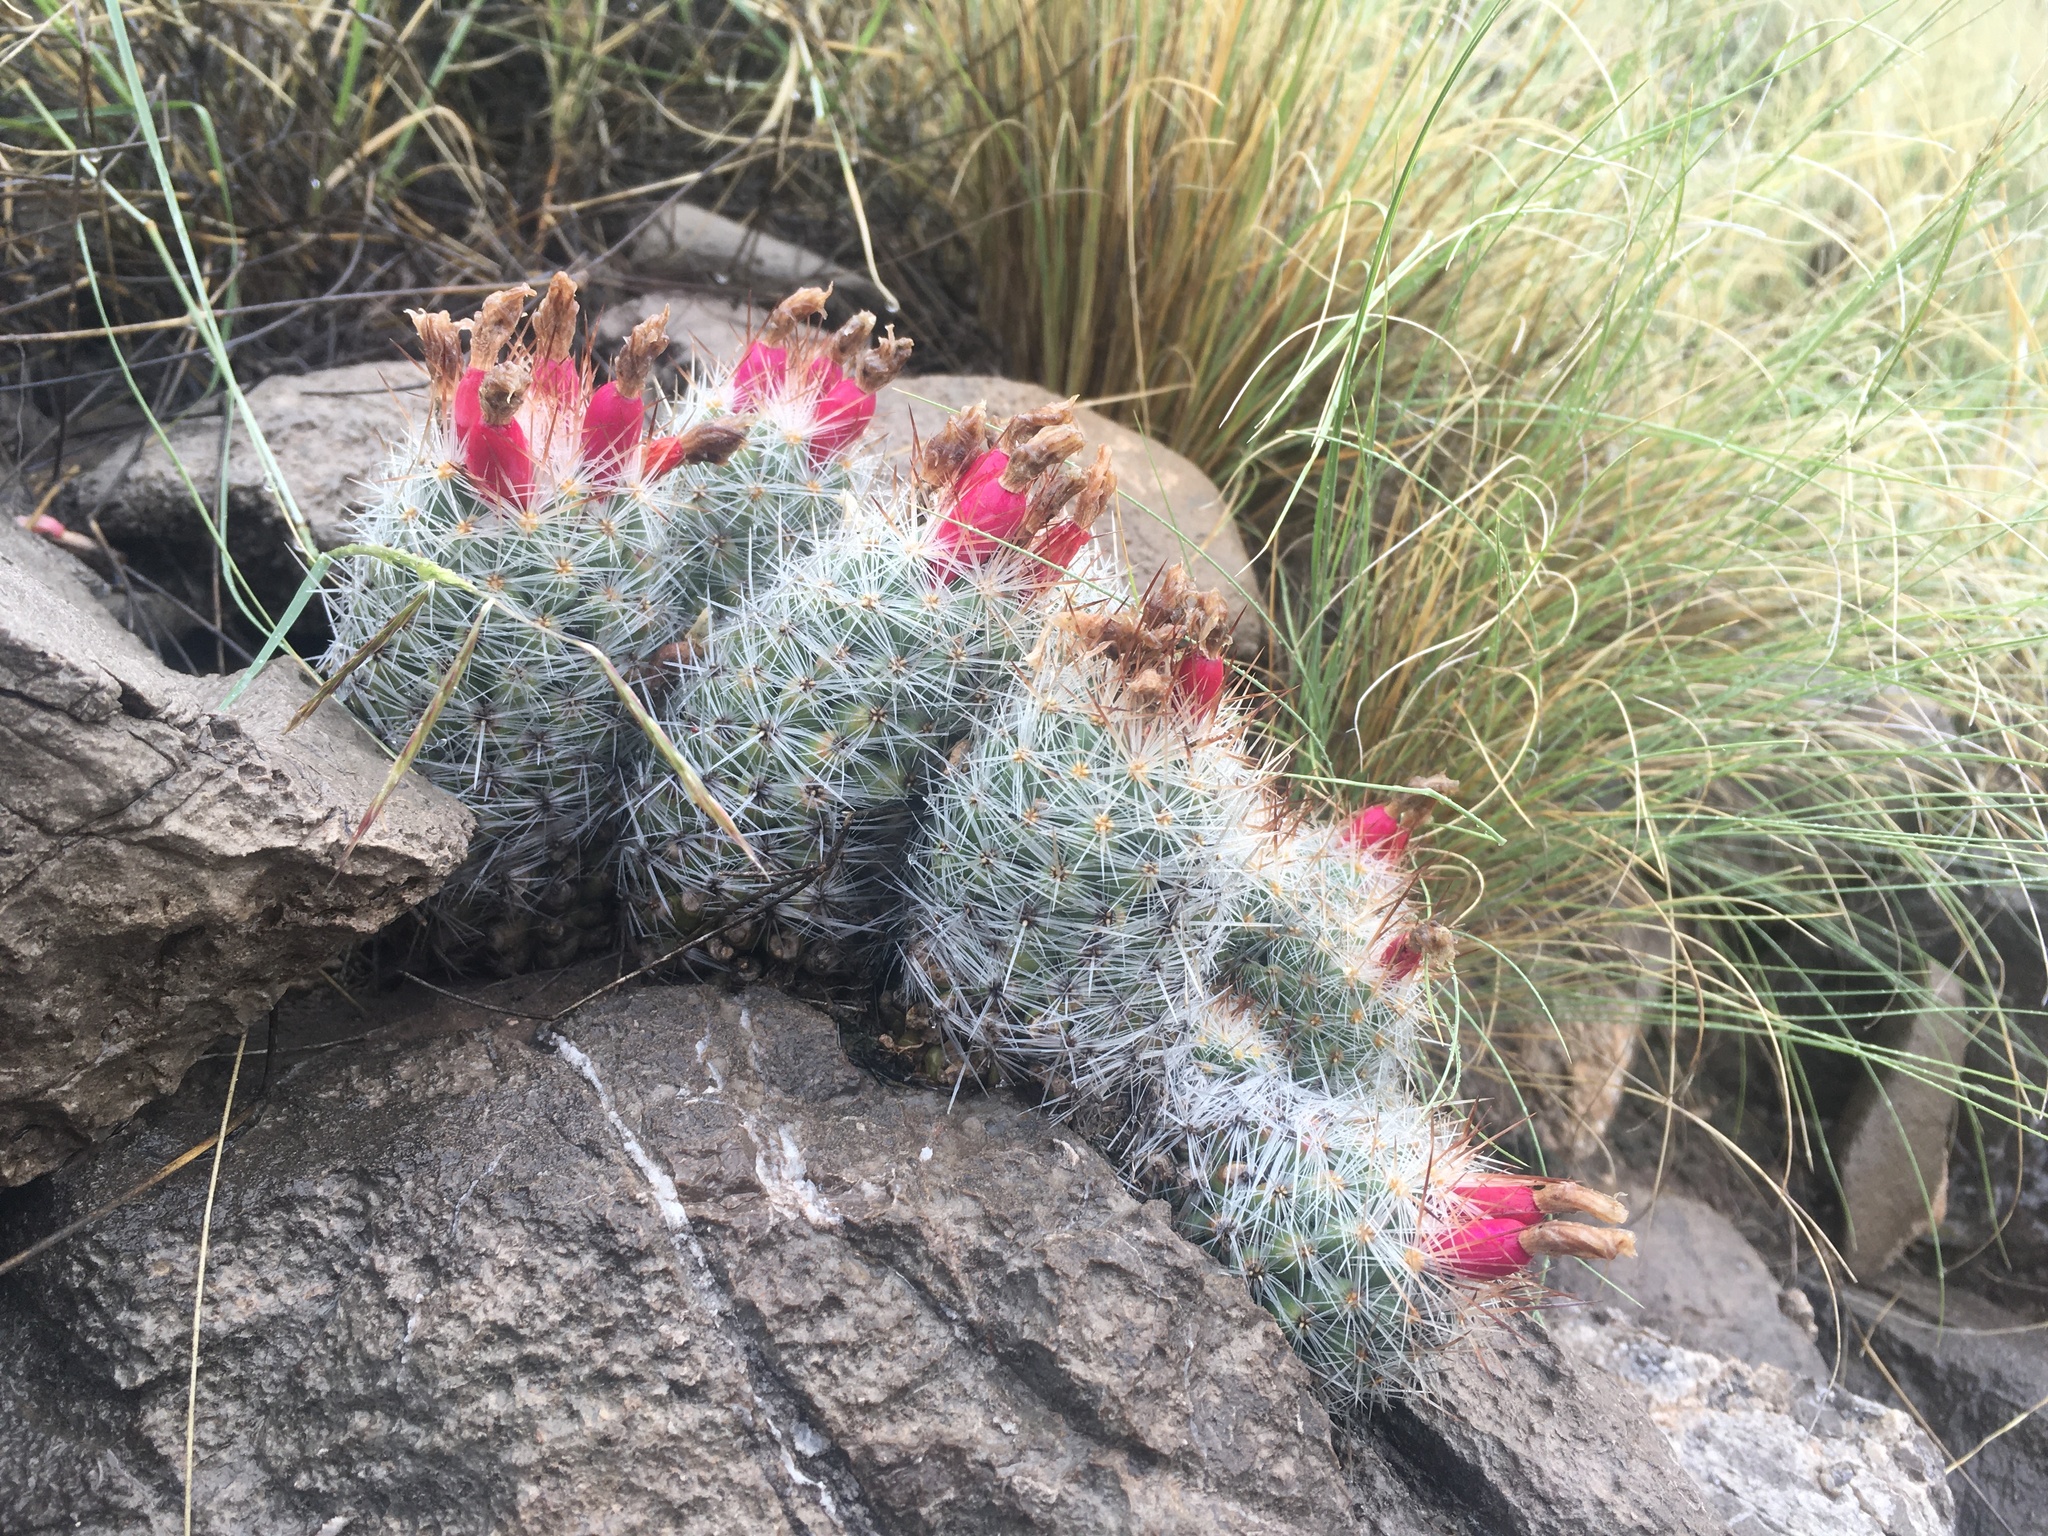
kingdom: Plantae
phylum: Tracheophyta
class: Magnoliopsida
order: Caryophyllales
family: Cactaceae
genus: Pelecyphora
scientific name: Pelecyphora tuberculosa
